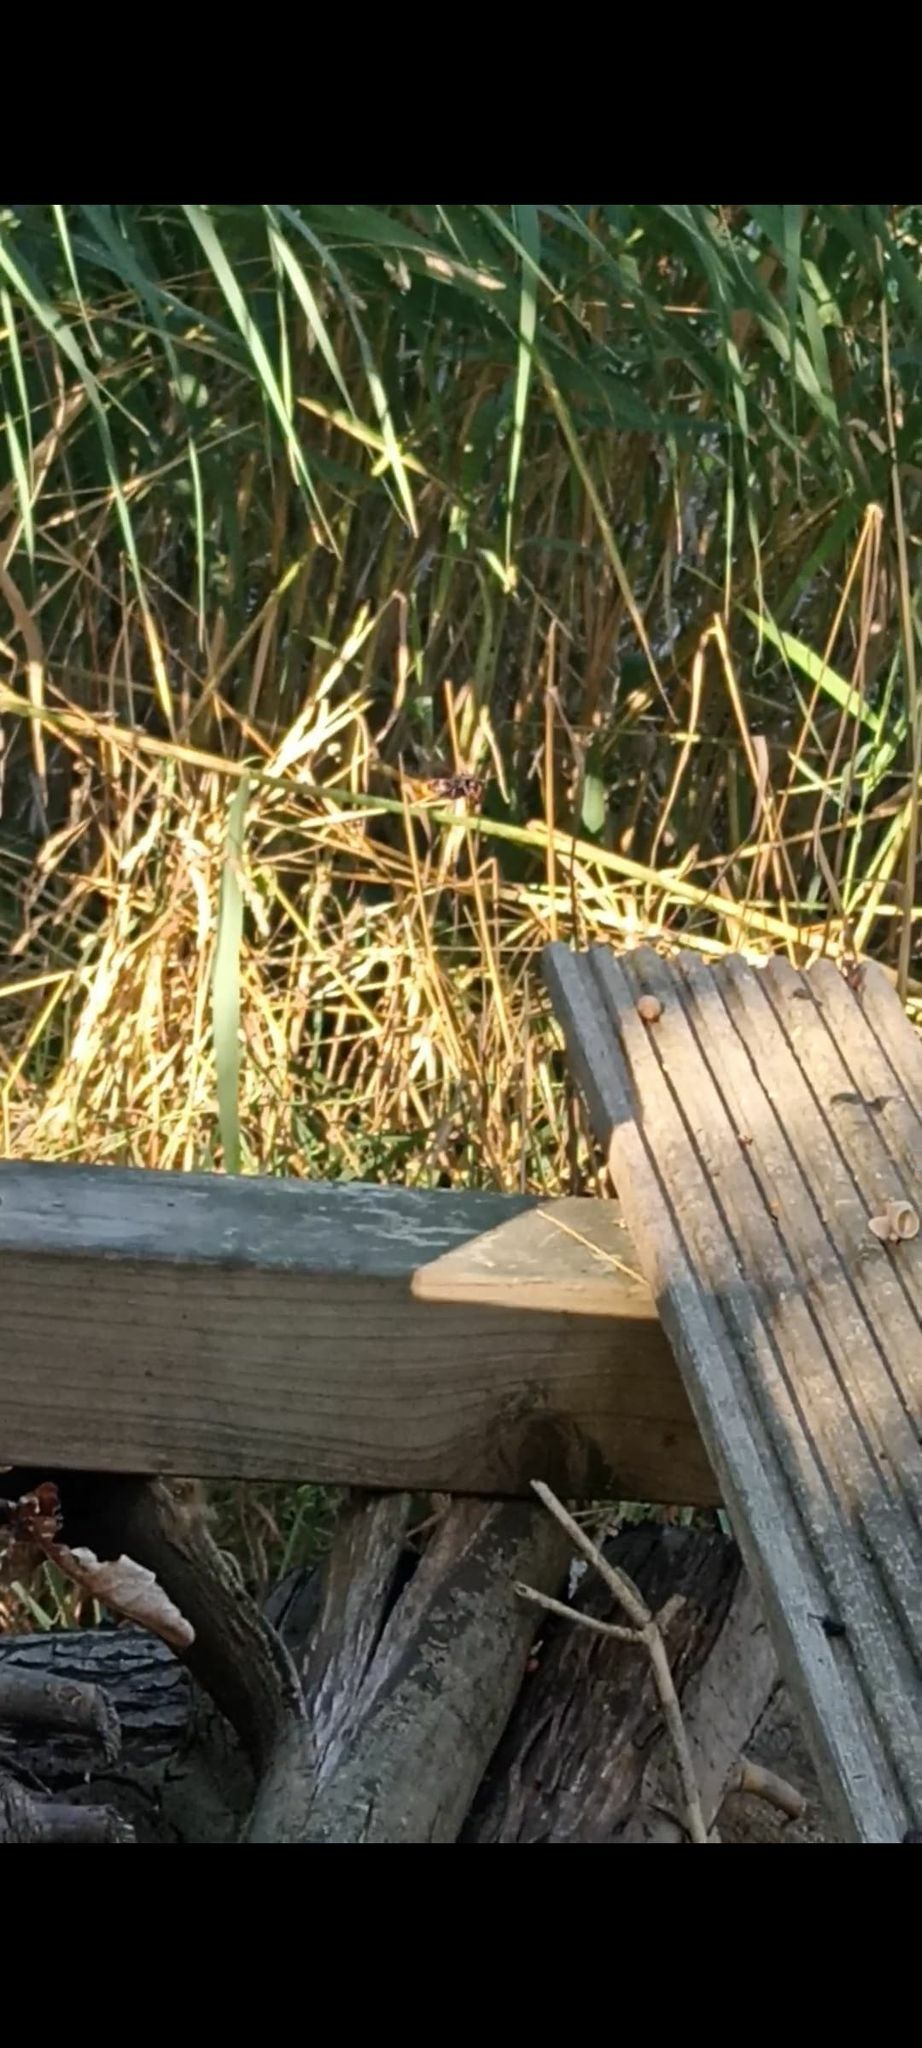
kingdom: Animalia
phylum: Arthropoda
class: Insecta
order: Hymenoptera
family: Vespidae
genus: Vespa
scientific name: Vespa velutina
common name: Asian hornet
